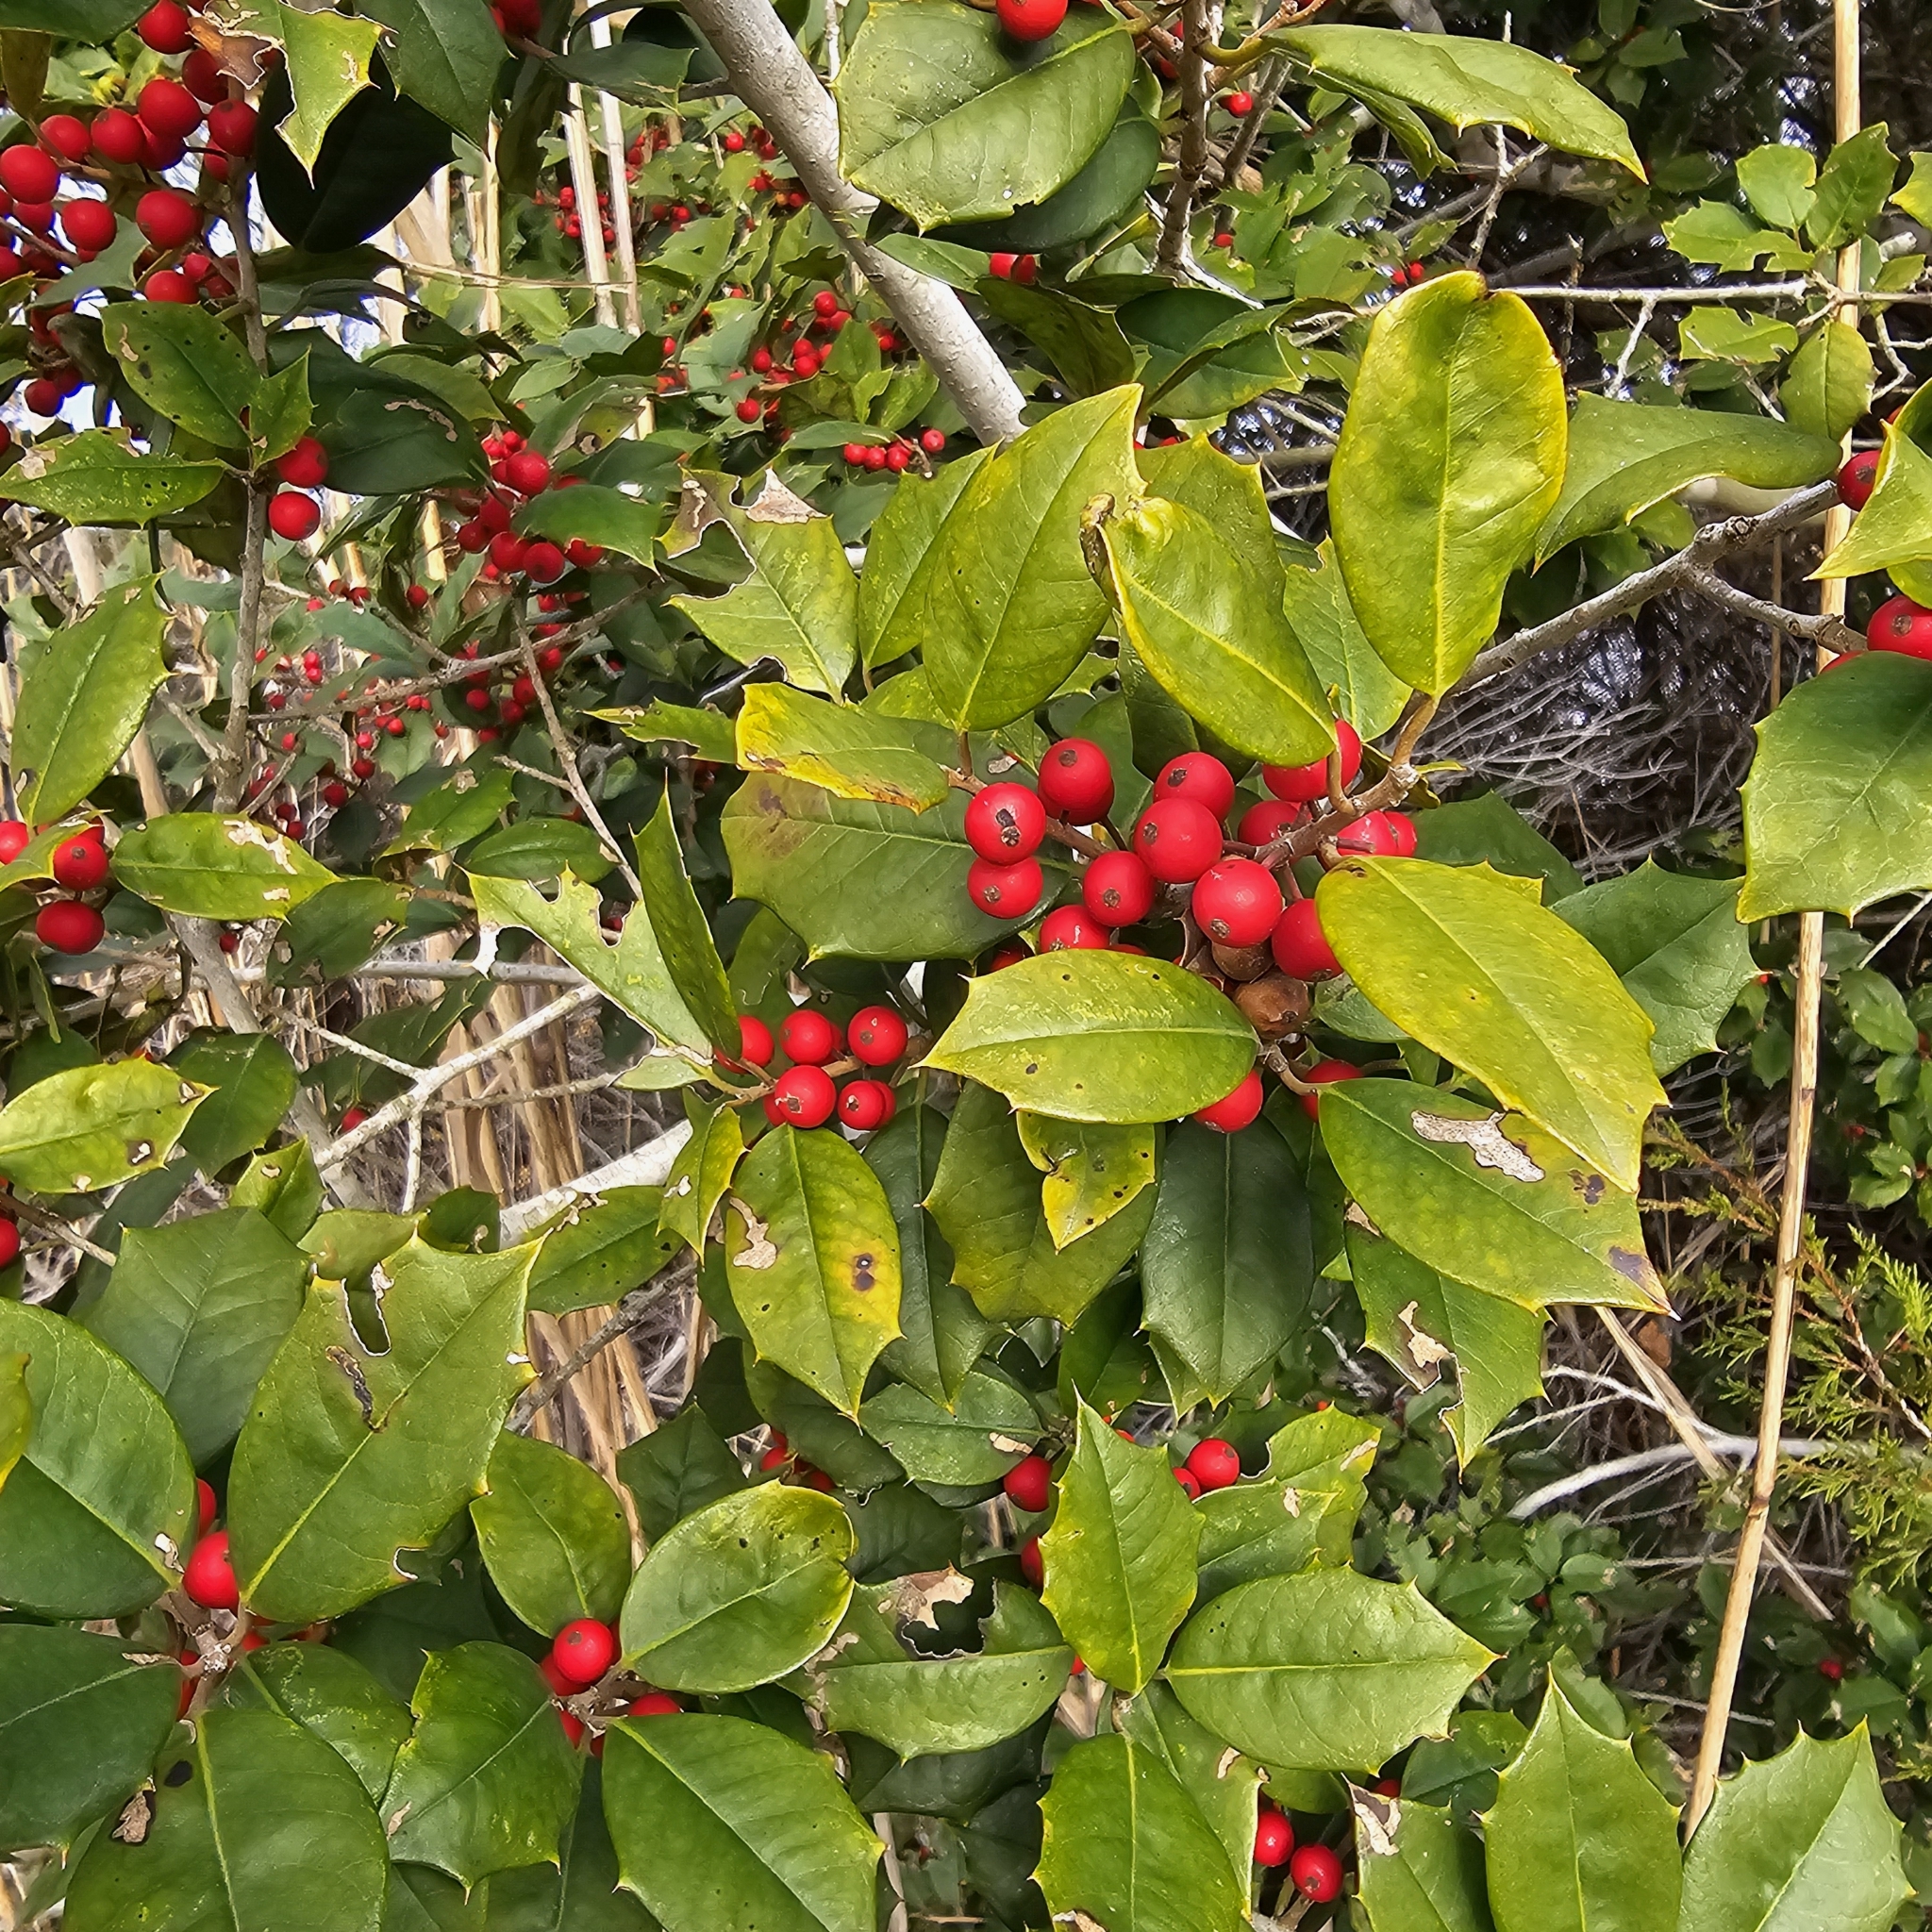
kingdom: Plantae
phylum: Tracheophyta
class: Magnoliopsida
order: Aquifoliales
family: Aquifoliaceae
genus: Ilex
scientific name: Ilex opaca
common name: American holly
